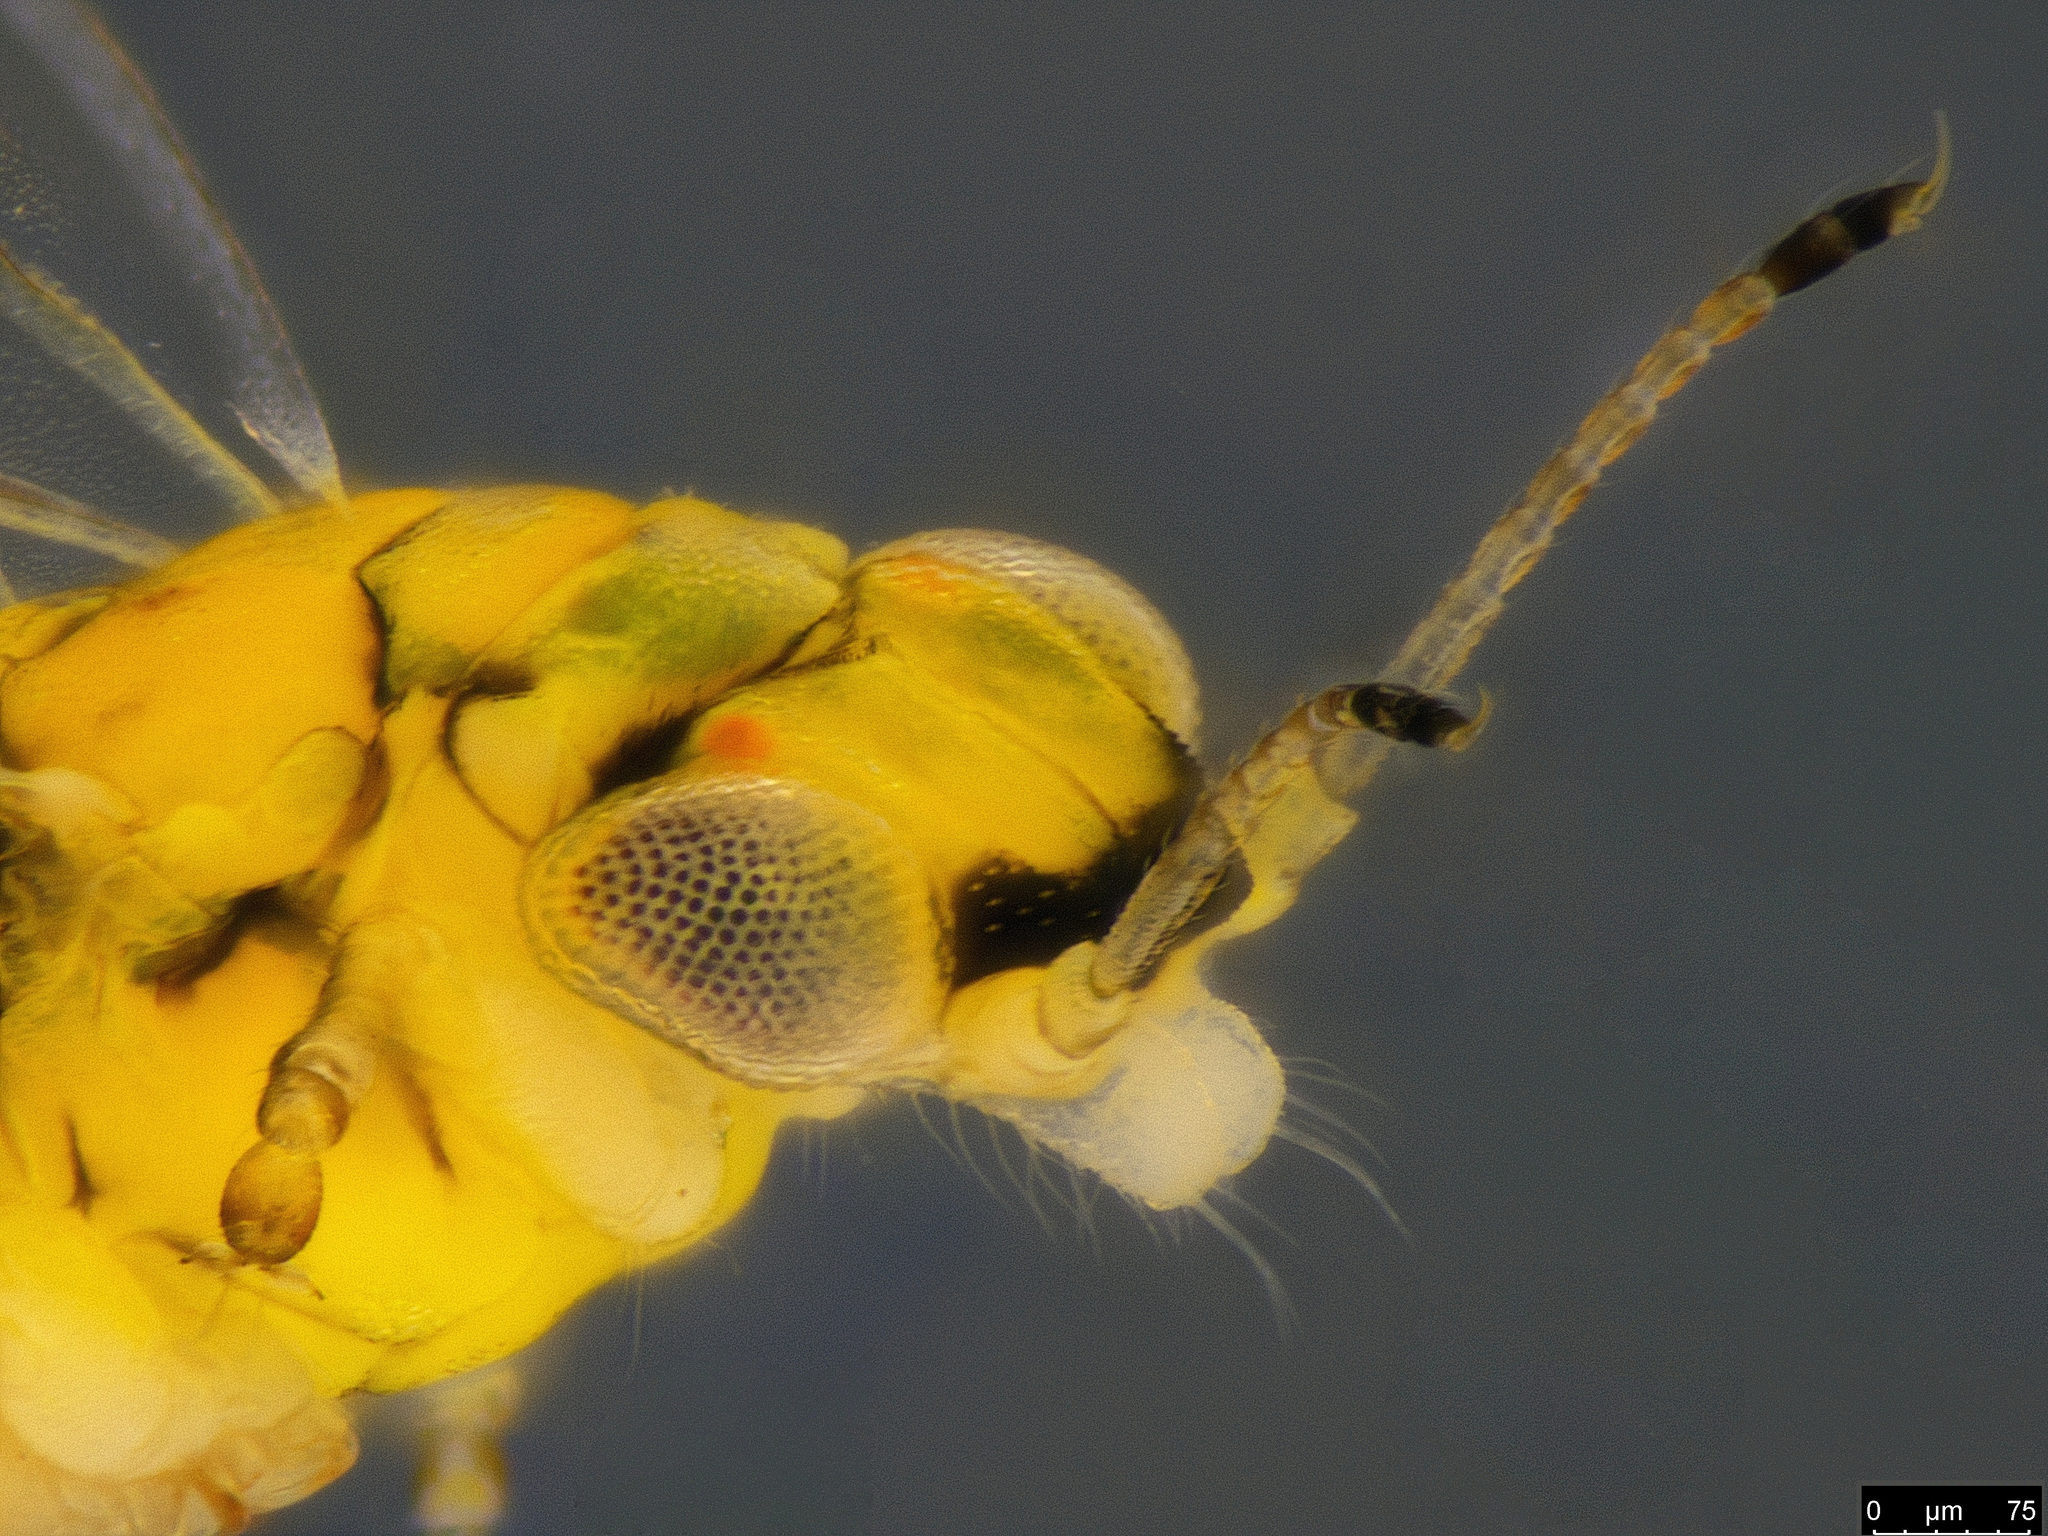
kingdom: Animalia
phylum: Arthropoda
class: Insecta
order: Hemiptera
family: Aphalaridae
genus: Cryptoneossa
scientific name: Cryptoneossa vulgaris
